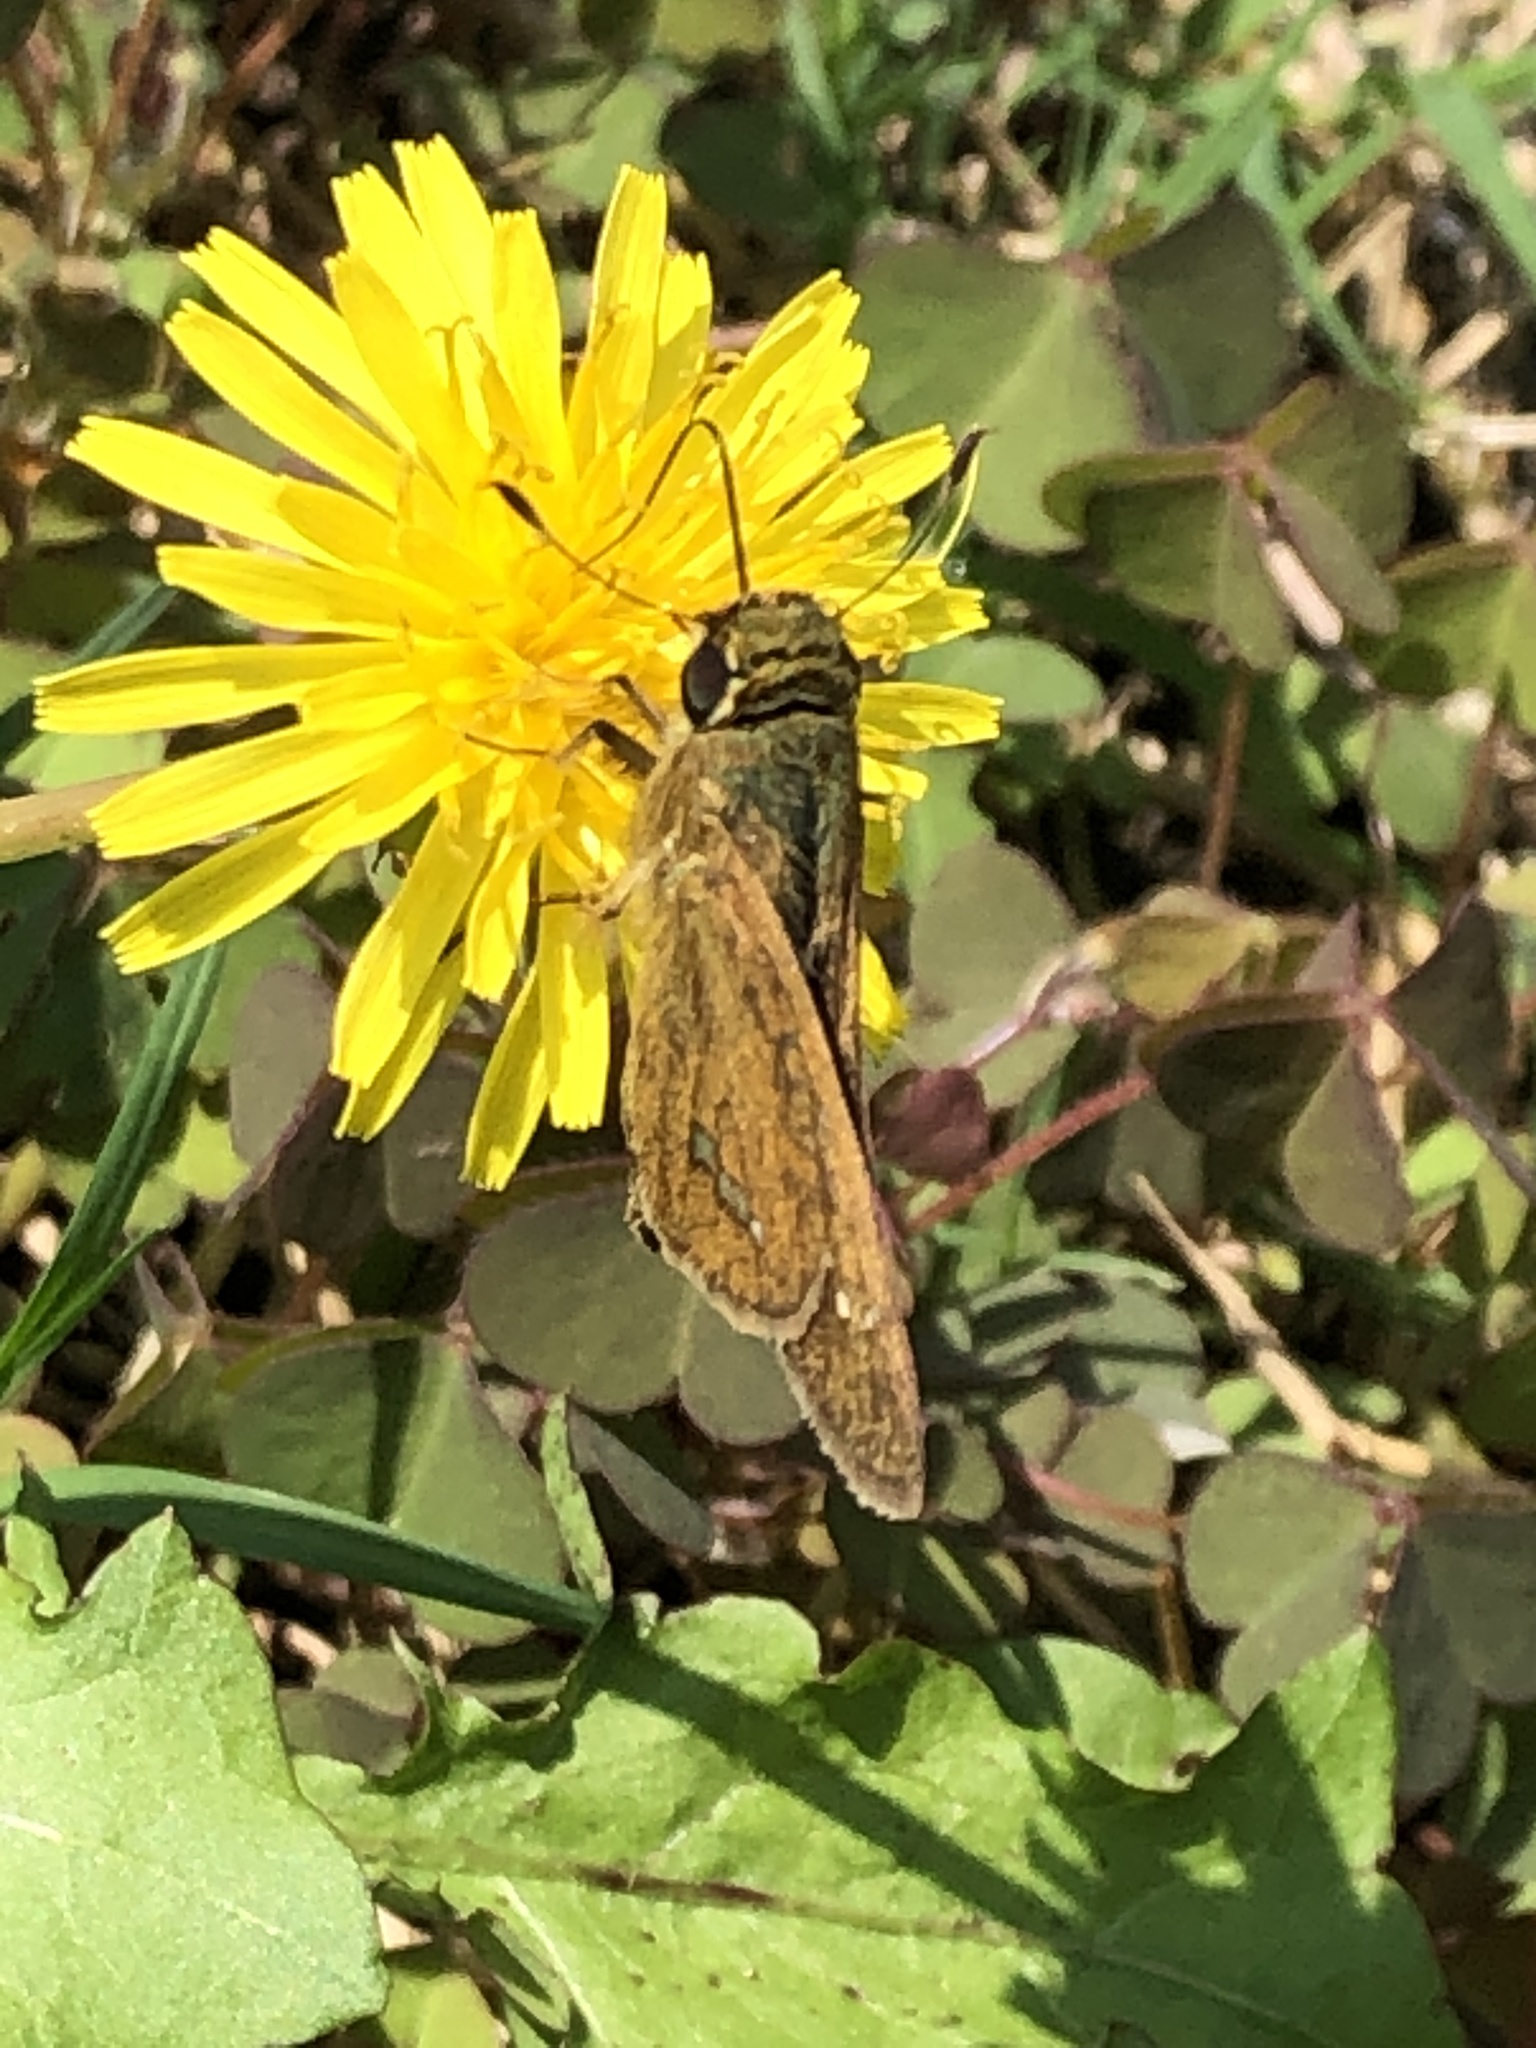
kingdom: Animalia
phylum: Arthropoda
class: Insecta
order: Lepidoptera
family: Hesperiidae
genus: Parnara
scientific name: Parnara guttatus
